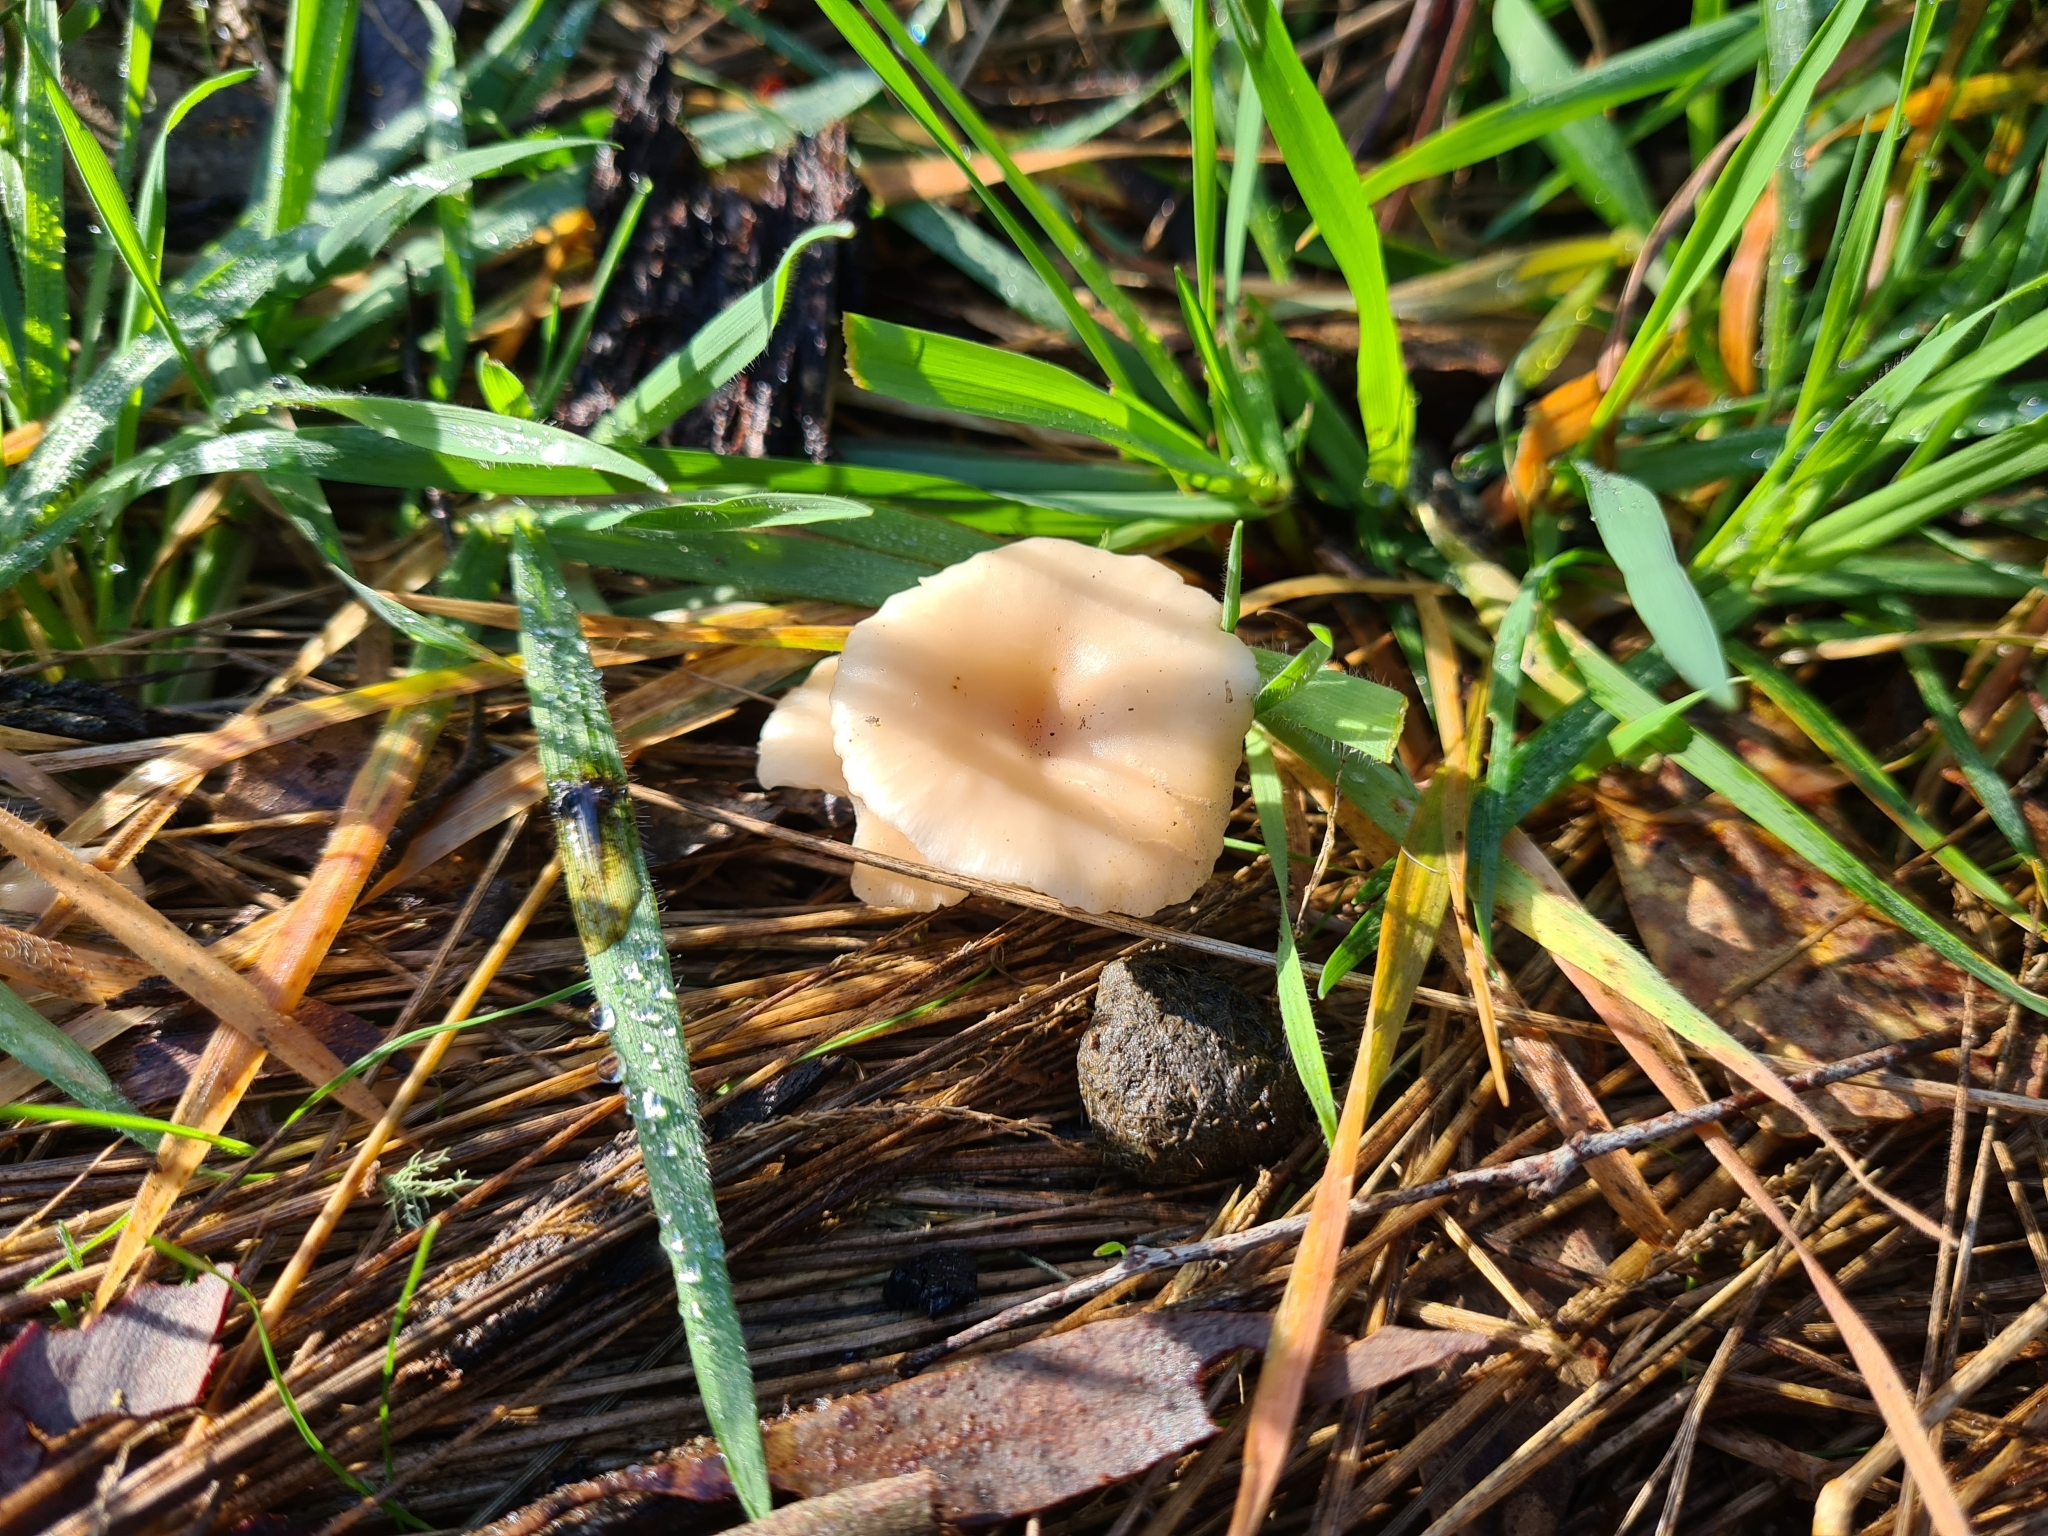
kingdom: Fungi
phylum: Basidiomycota
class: Agaricomycetes
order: Agaricales
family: Tricholomataceae
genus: Singerocybe
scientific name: Singerocybe clitocyboides
